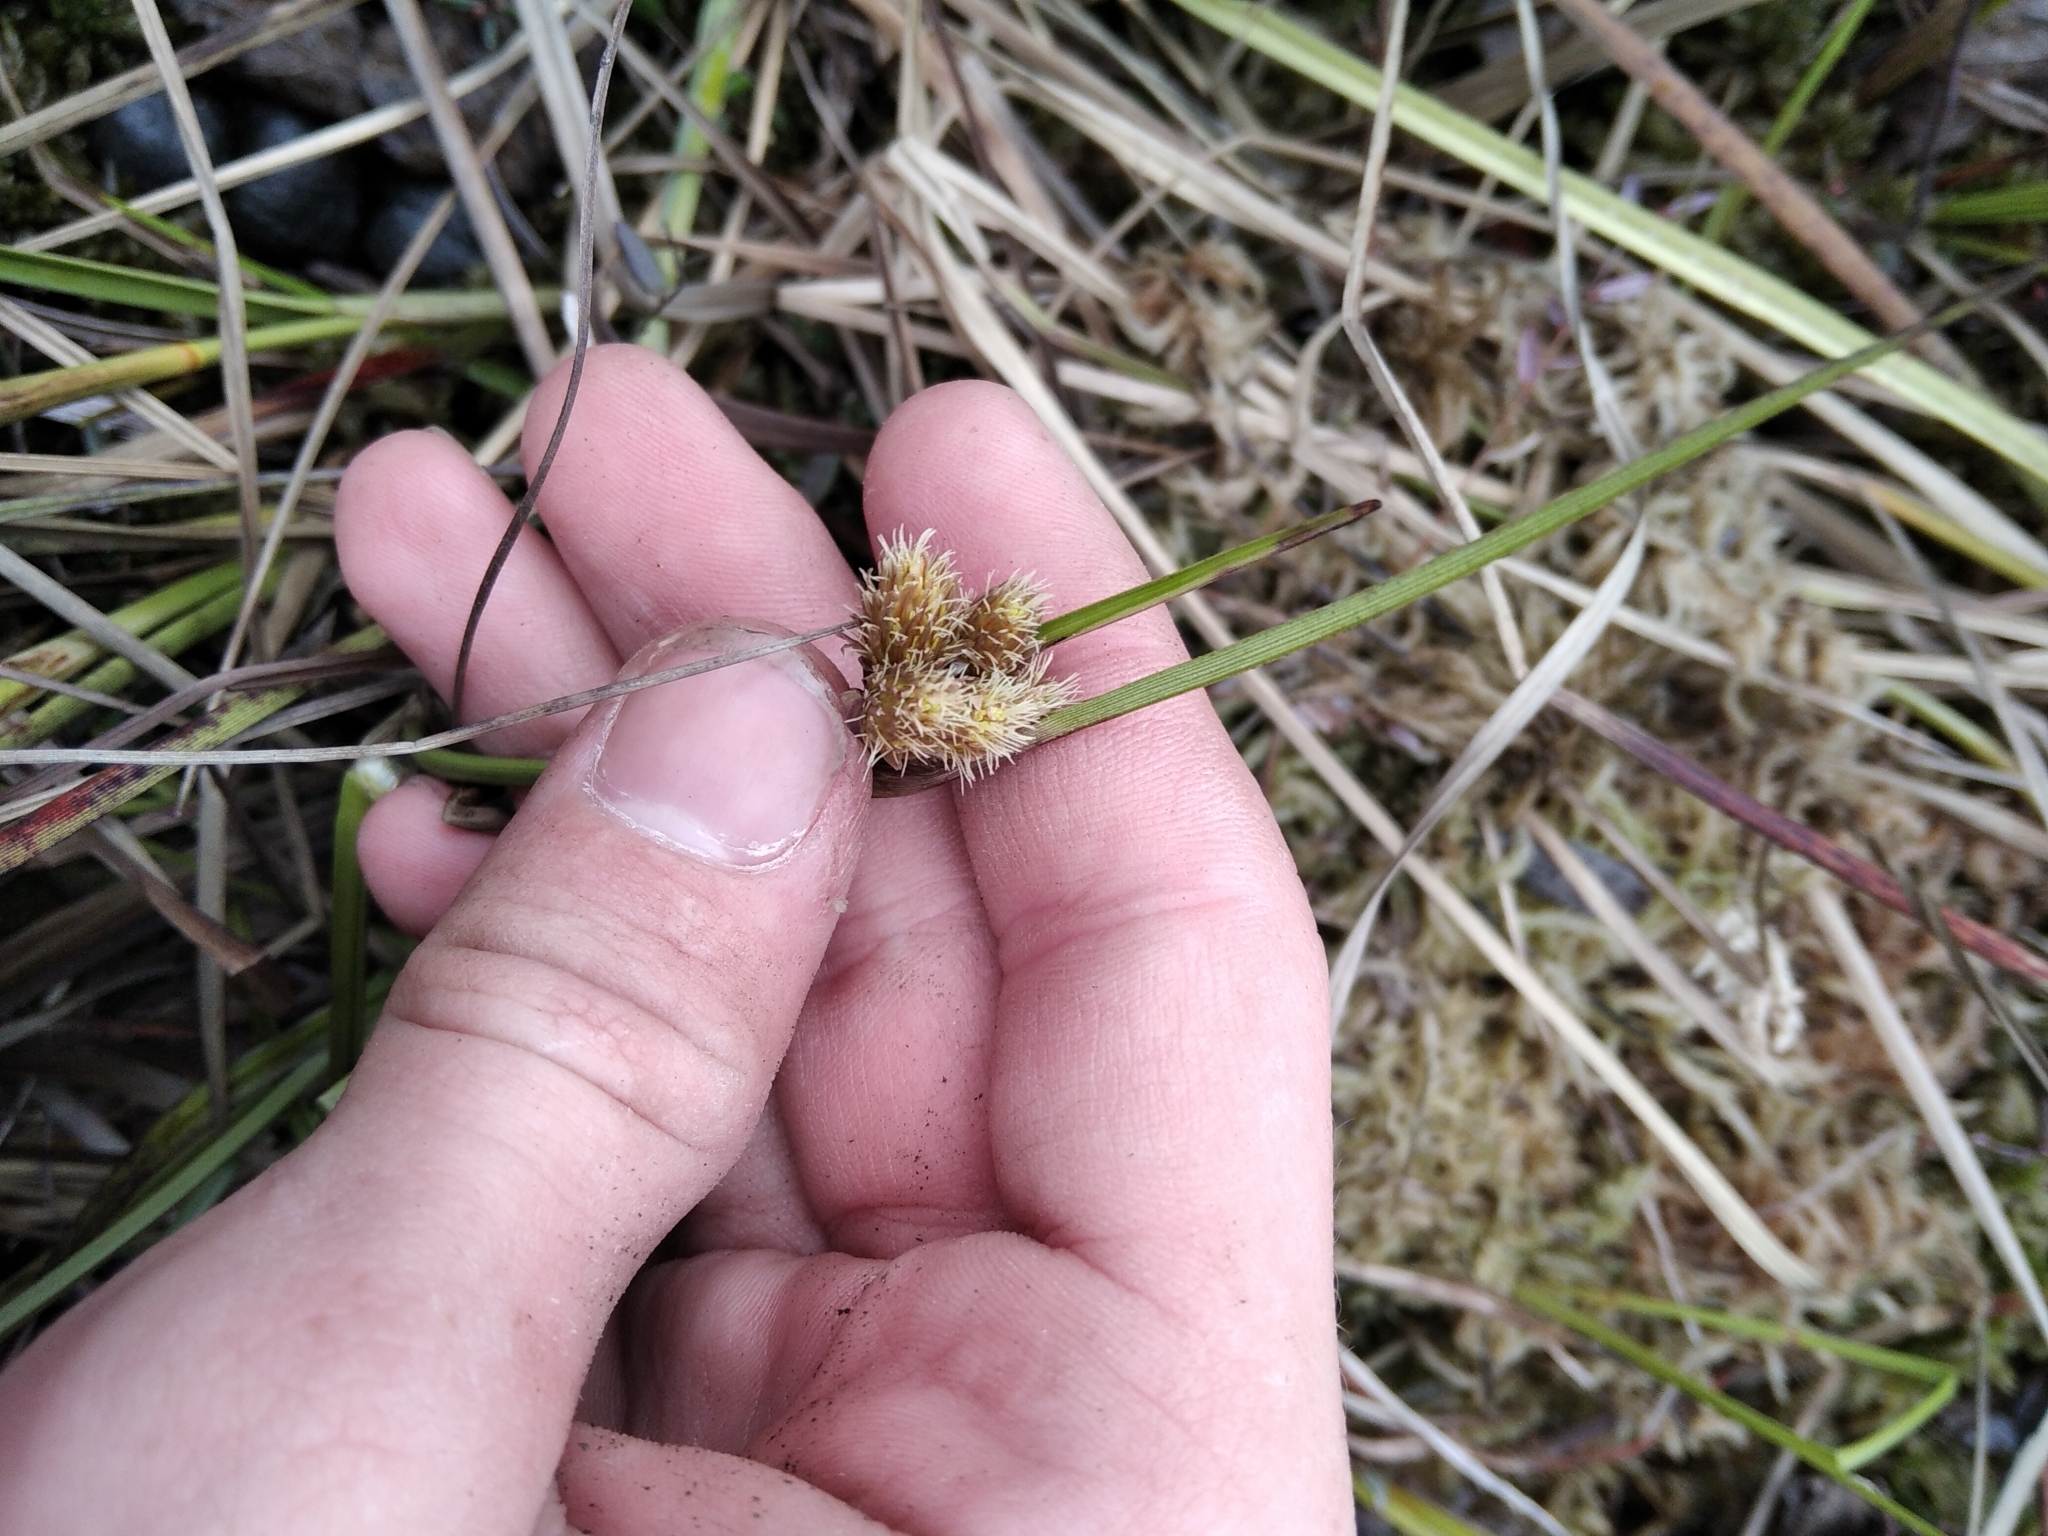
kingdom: Plantae
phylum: Tracheophyta
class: Liliopsida
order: Poales
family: Cyperaceae
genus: Eriophorum
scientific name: Eriophorum angustifolium
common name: Common cottongrass
